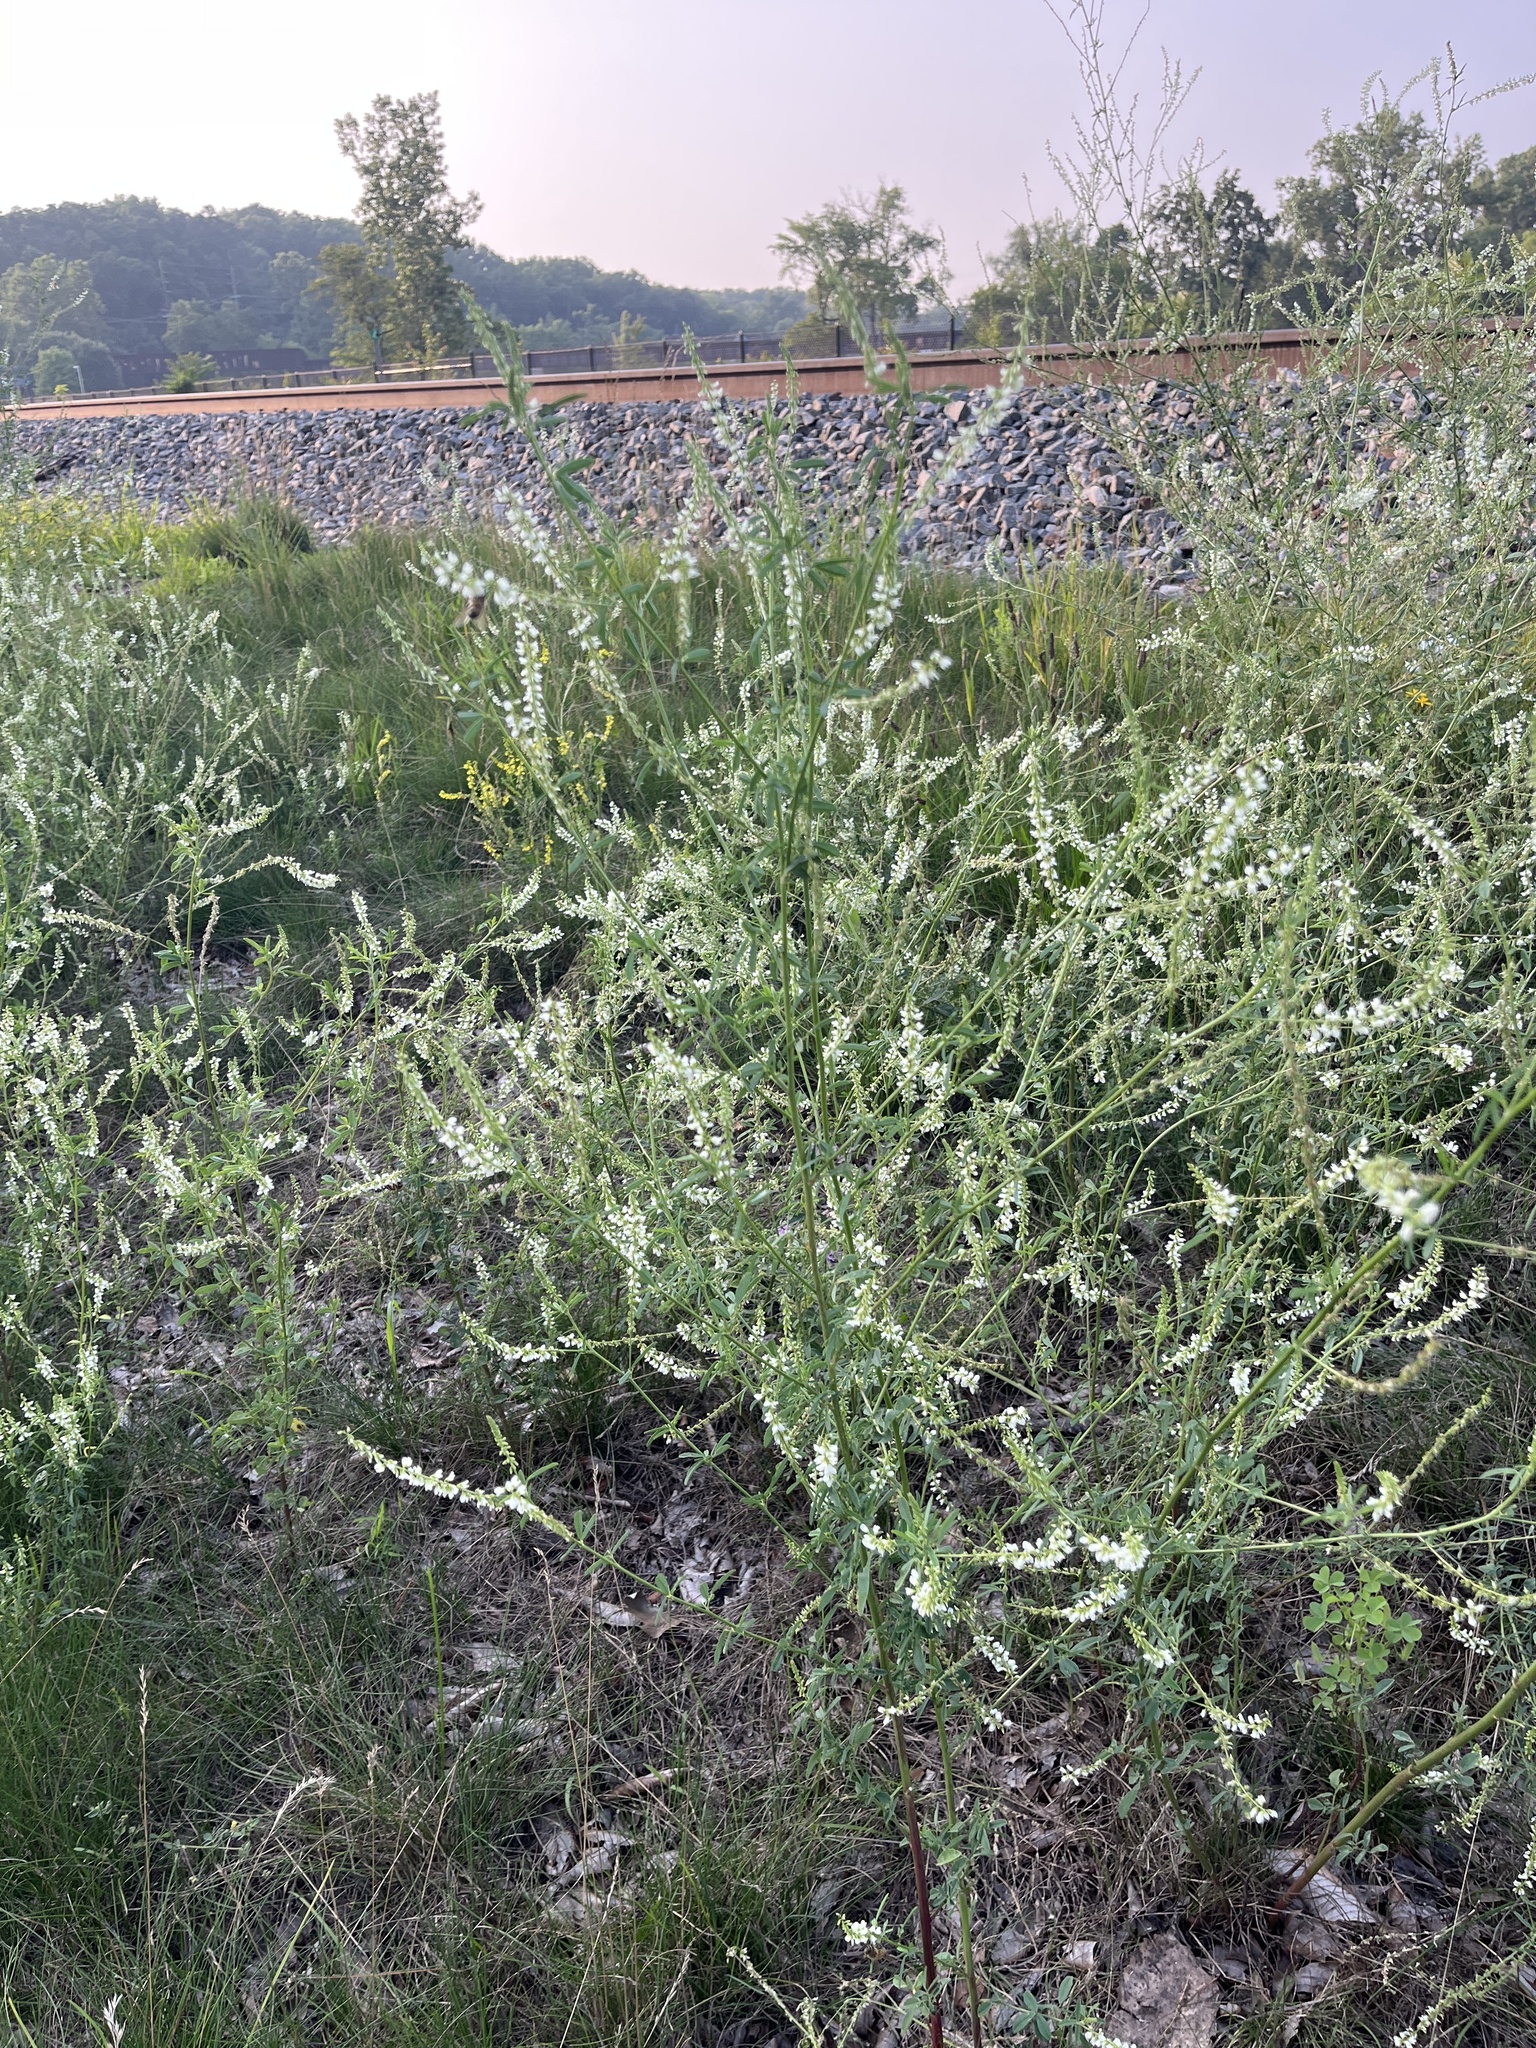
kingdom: Plantae
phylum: Tracheophyta
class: Magnoliopsida
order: Fabales
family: Fabaceae
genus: Melilotus
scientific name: Melilotus albus
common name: White melilot
